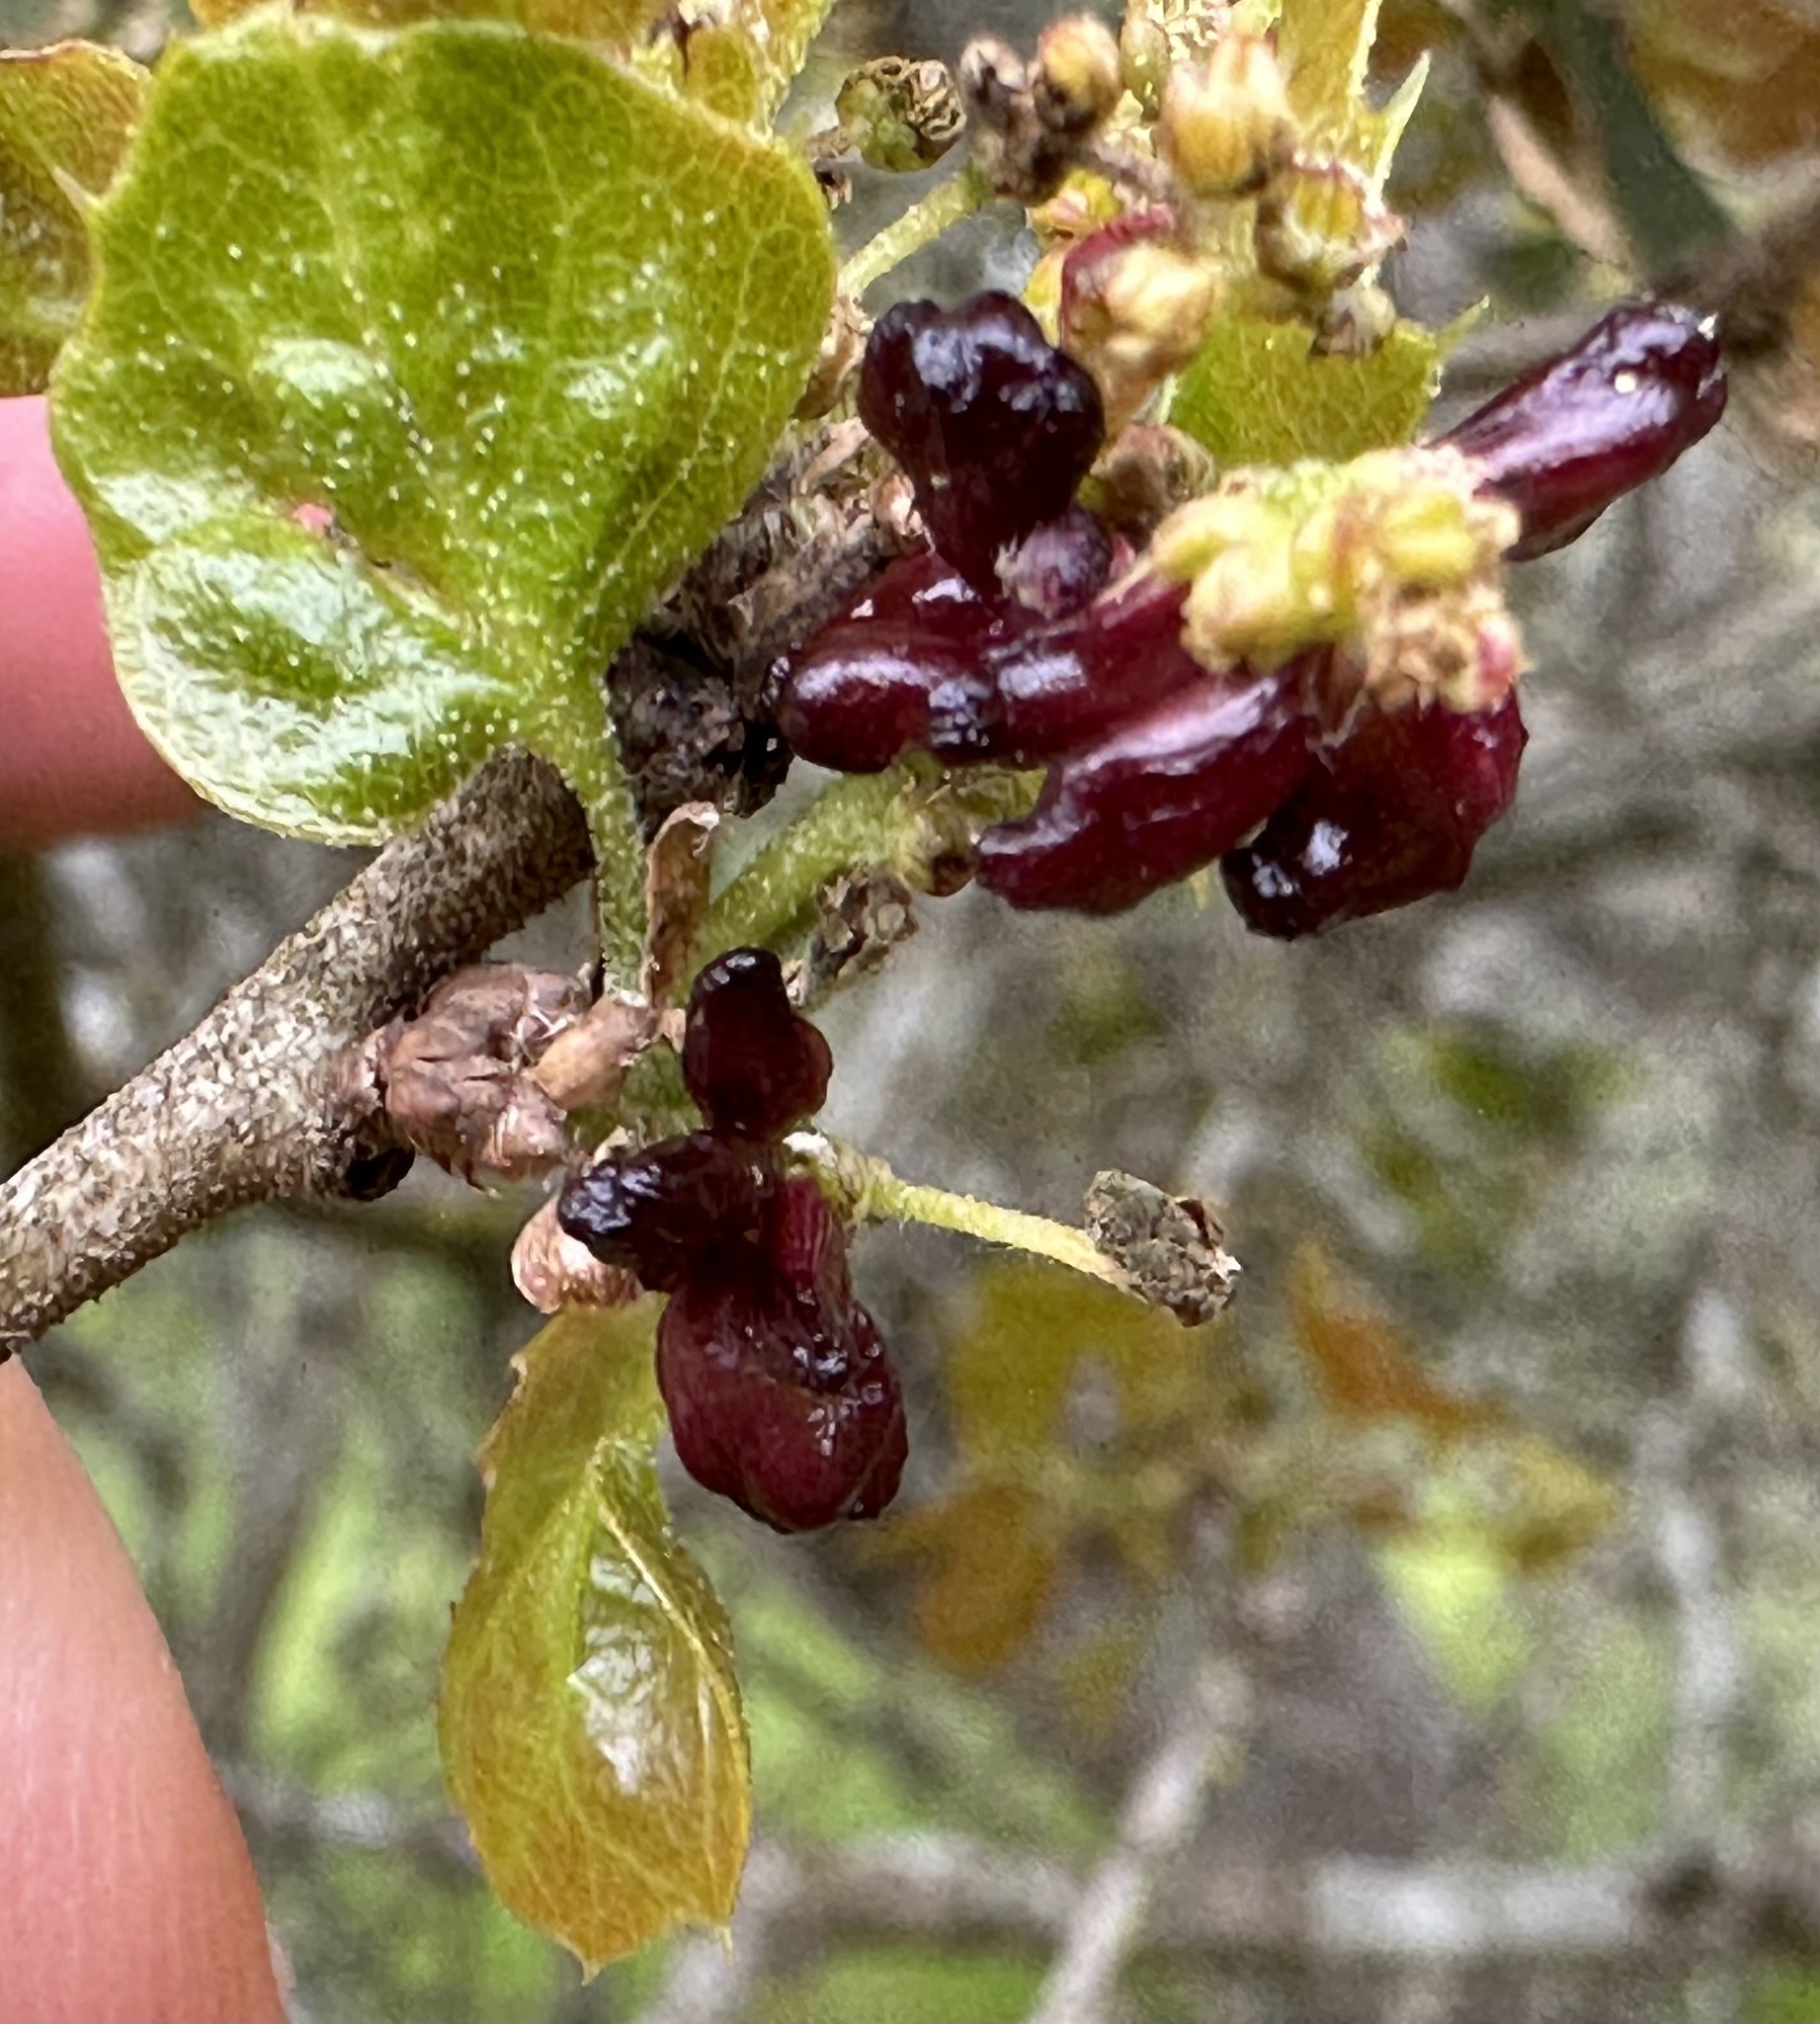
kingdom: Animalia
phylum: Arthropoda
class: Insecta
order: Hymenoptera
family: Cynipidae
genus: Dryocosmus
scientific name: Dryocosmus
